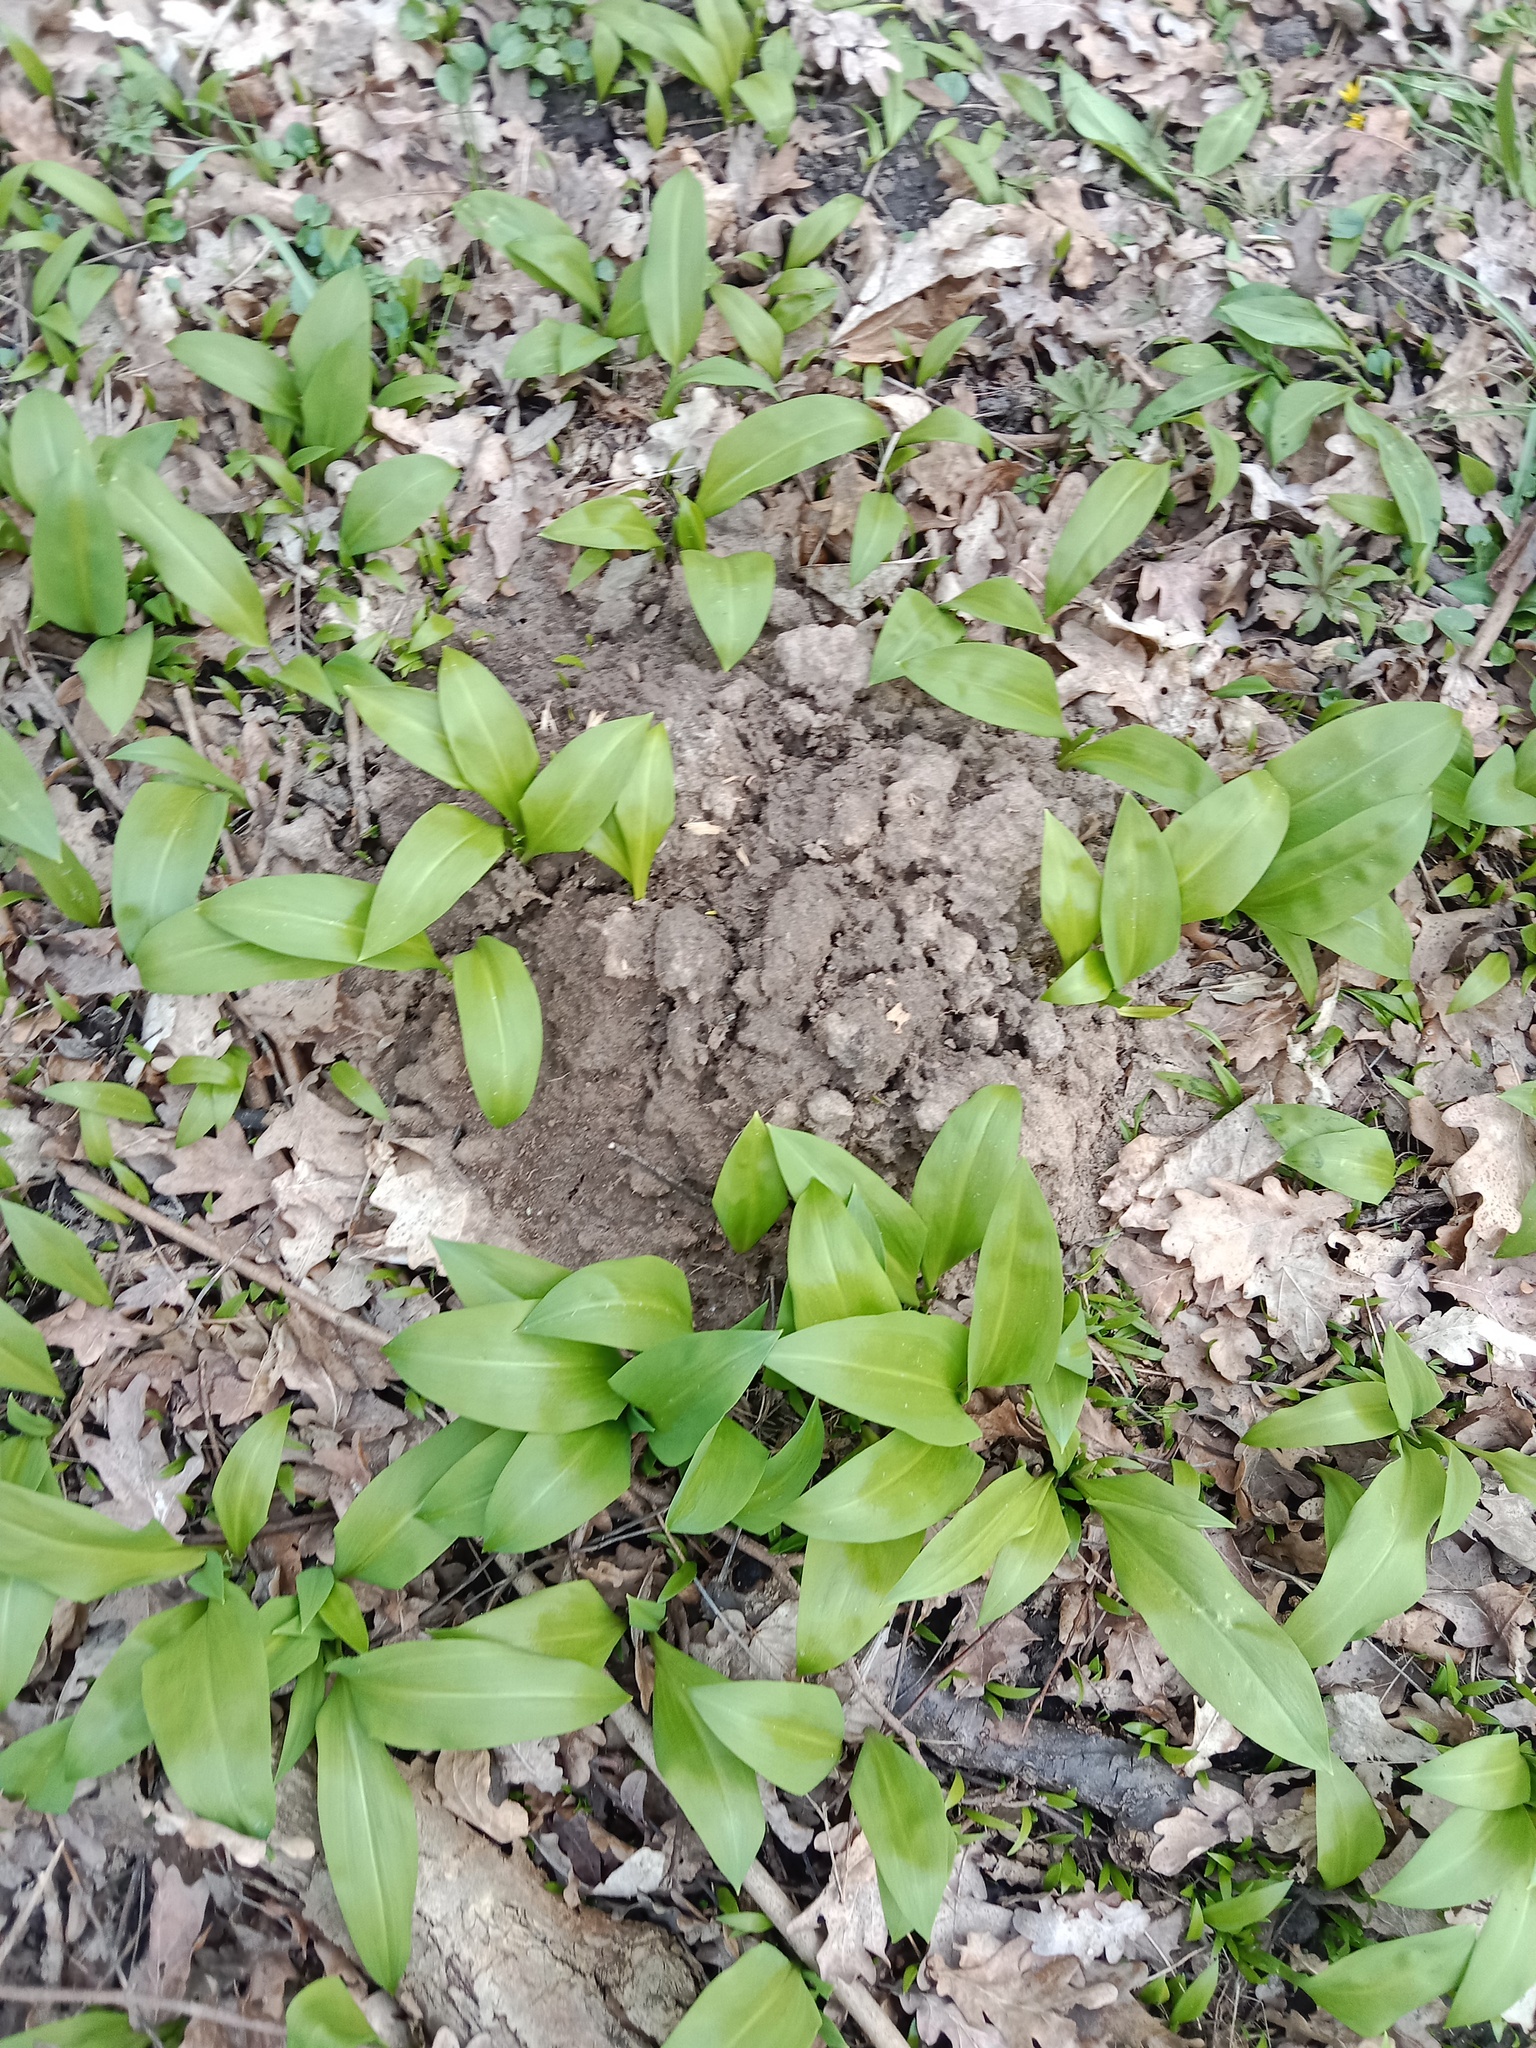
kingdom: Plantae
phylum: Tracheophyta
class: Liliopsida
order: Asparagales
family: Amaryllidaceae
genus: Allium
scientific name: Allium ursinum
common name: Ramsons
